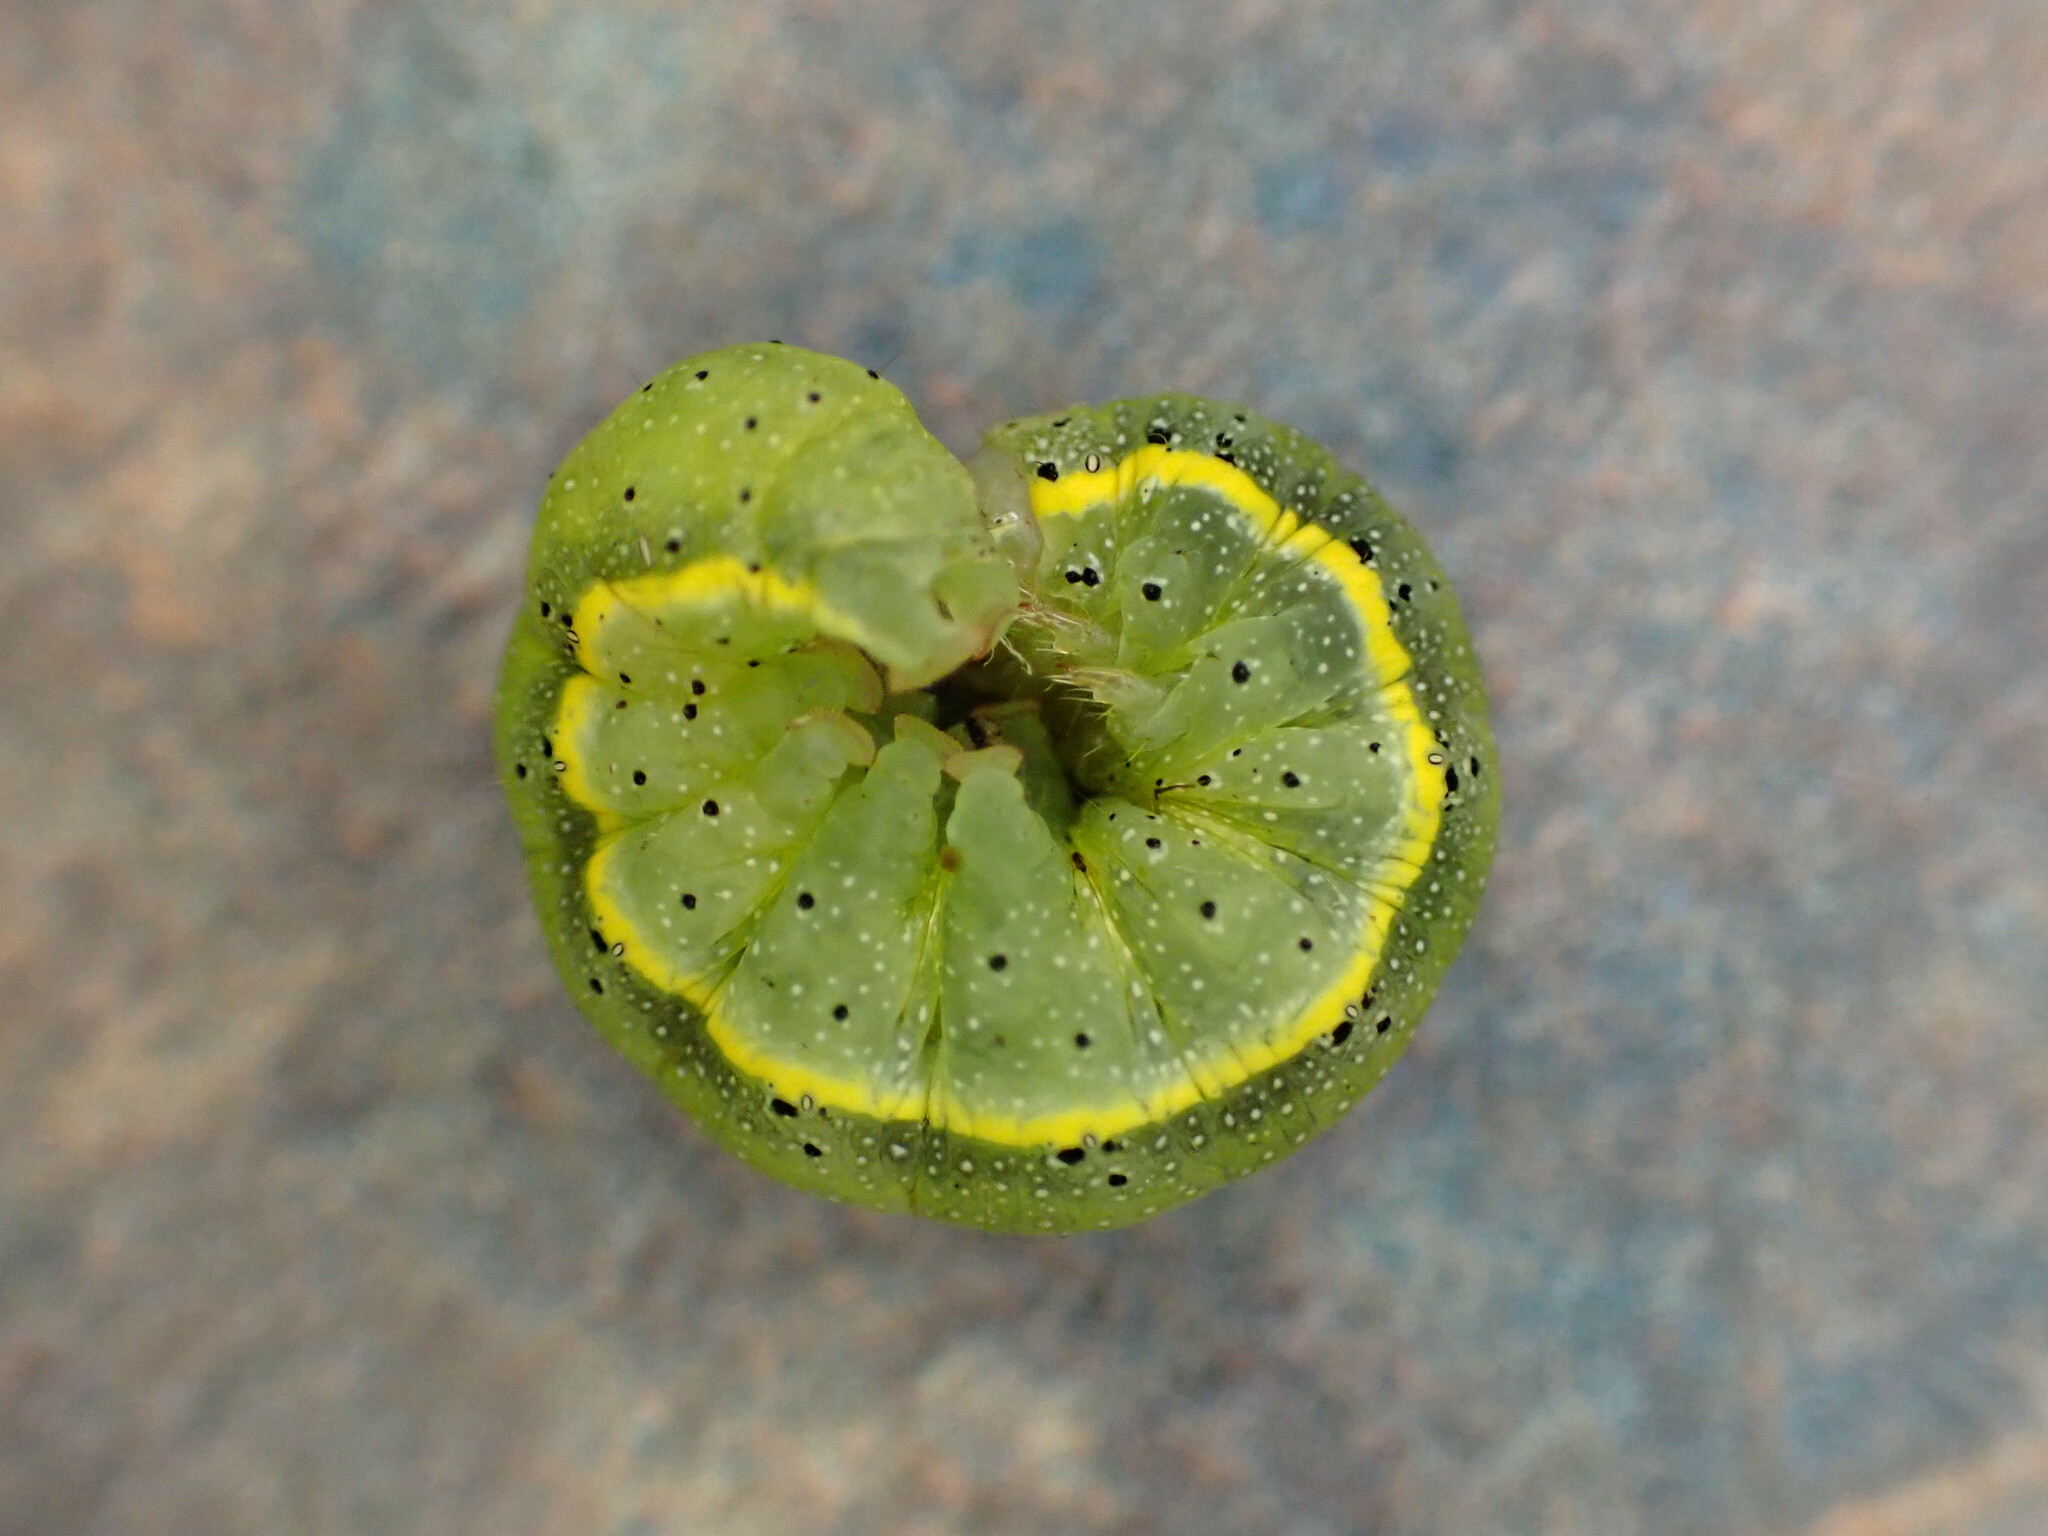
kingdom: Animalia
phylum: Arthropoda
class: Insecta
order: Lepidoptera
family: Noctuidae
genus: Lacanobia
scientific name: Lacanobia oleracea
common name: Bright-line brown-eye
